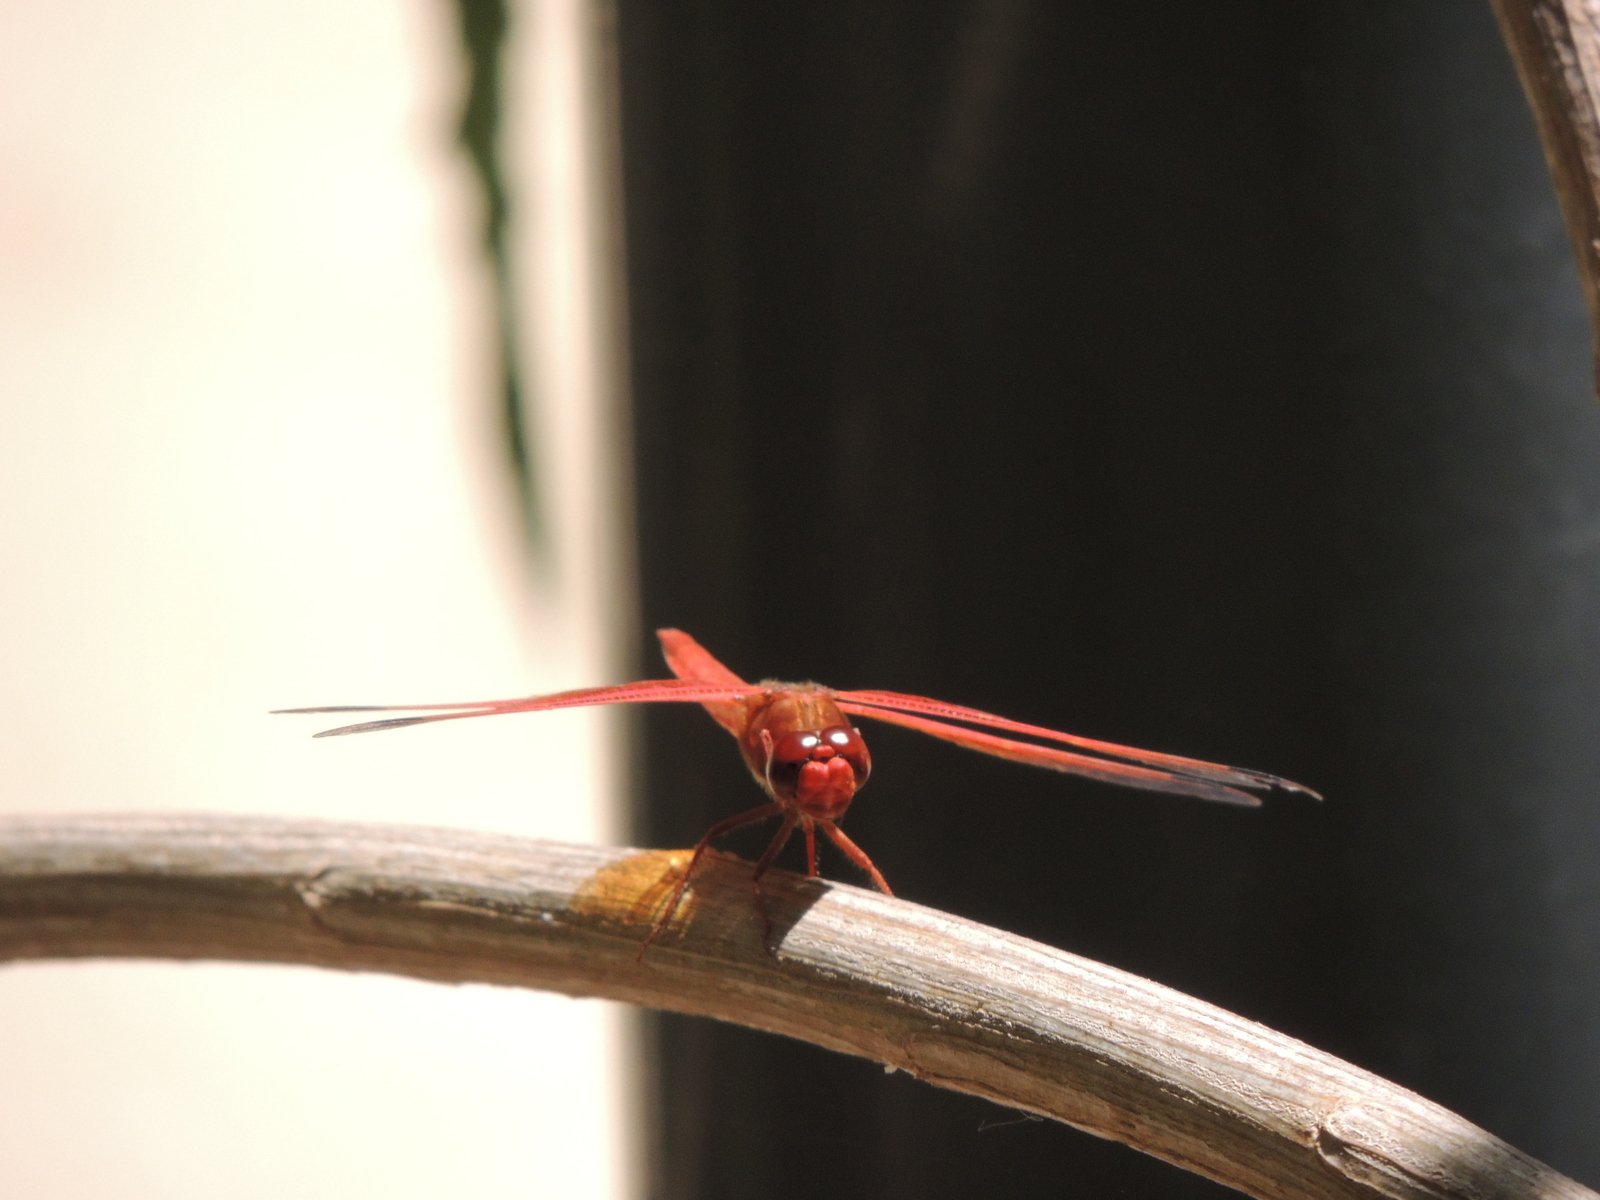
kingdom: Animalia
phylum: Arthropoda
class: Insecta
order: Odonata
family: Libellulidae
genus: Libellula
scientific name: Libellula saturata
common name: Flame skimmer
